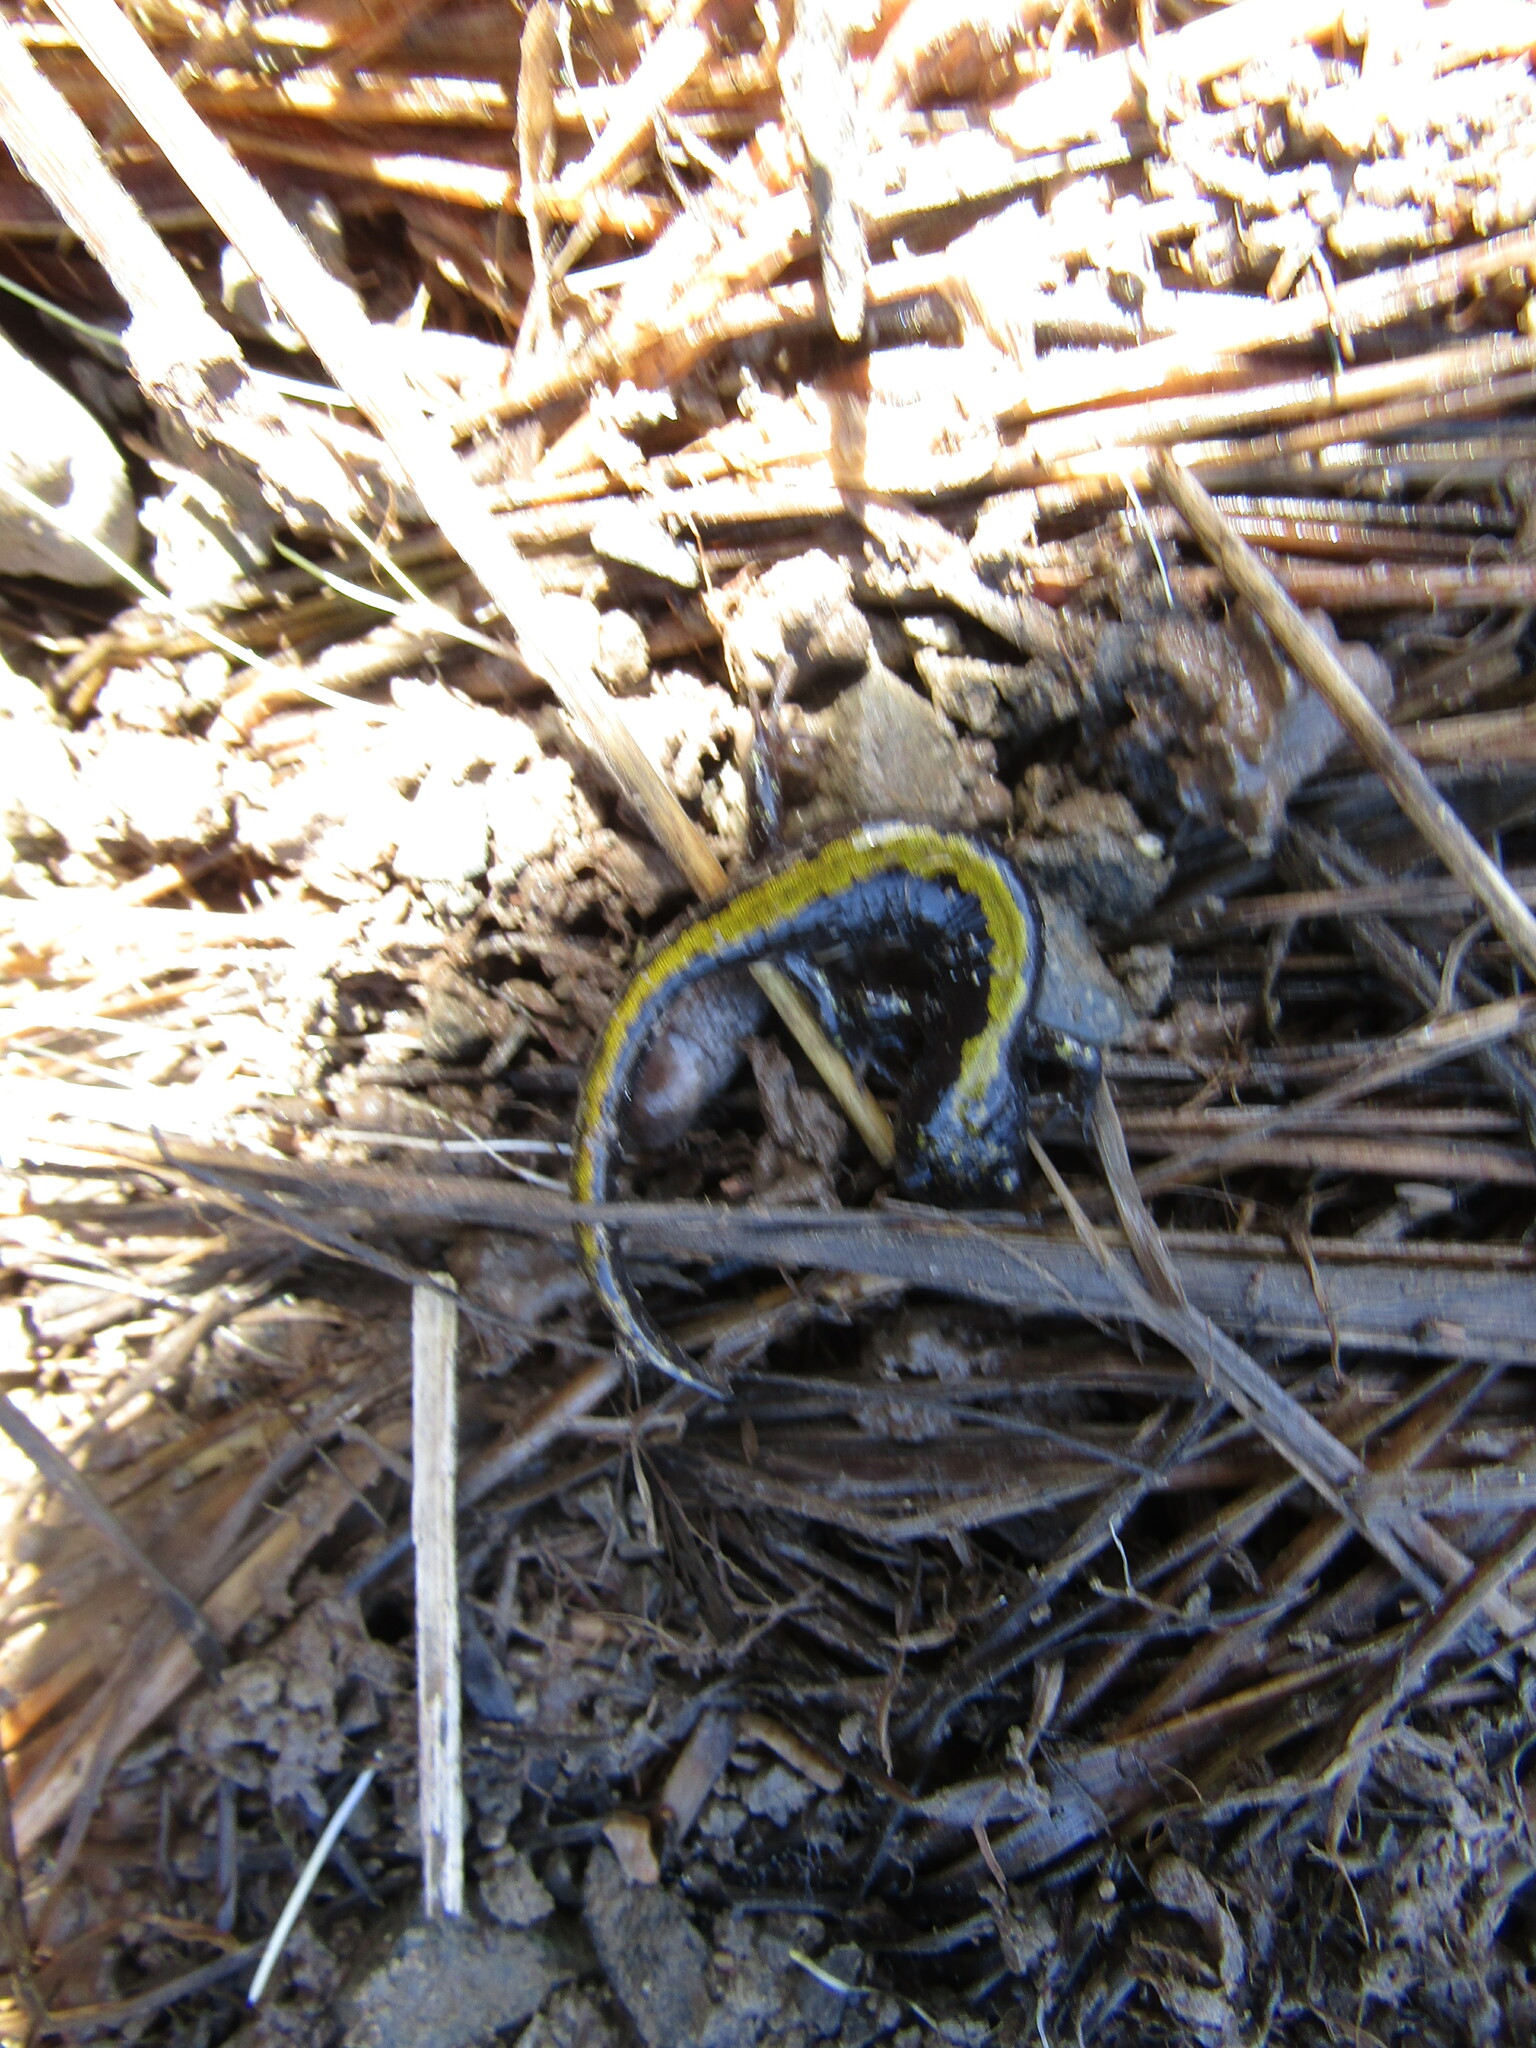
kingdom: Animalia
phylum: Chordata
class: Amphibia
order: Caudata
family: Ambystomatidae
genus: Ambystoma
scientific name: Ambystoma macrodactylum
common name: Long-toed salamander
